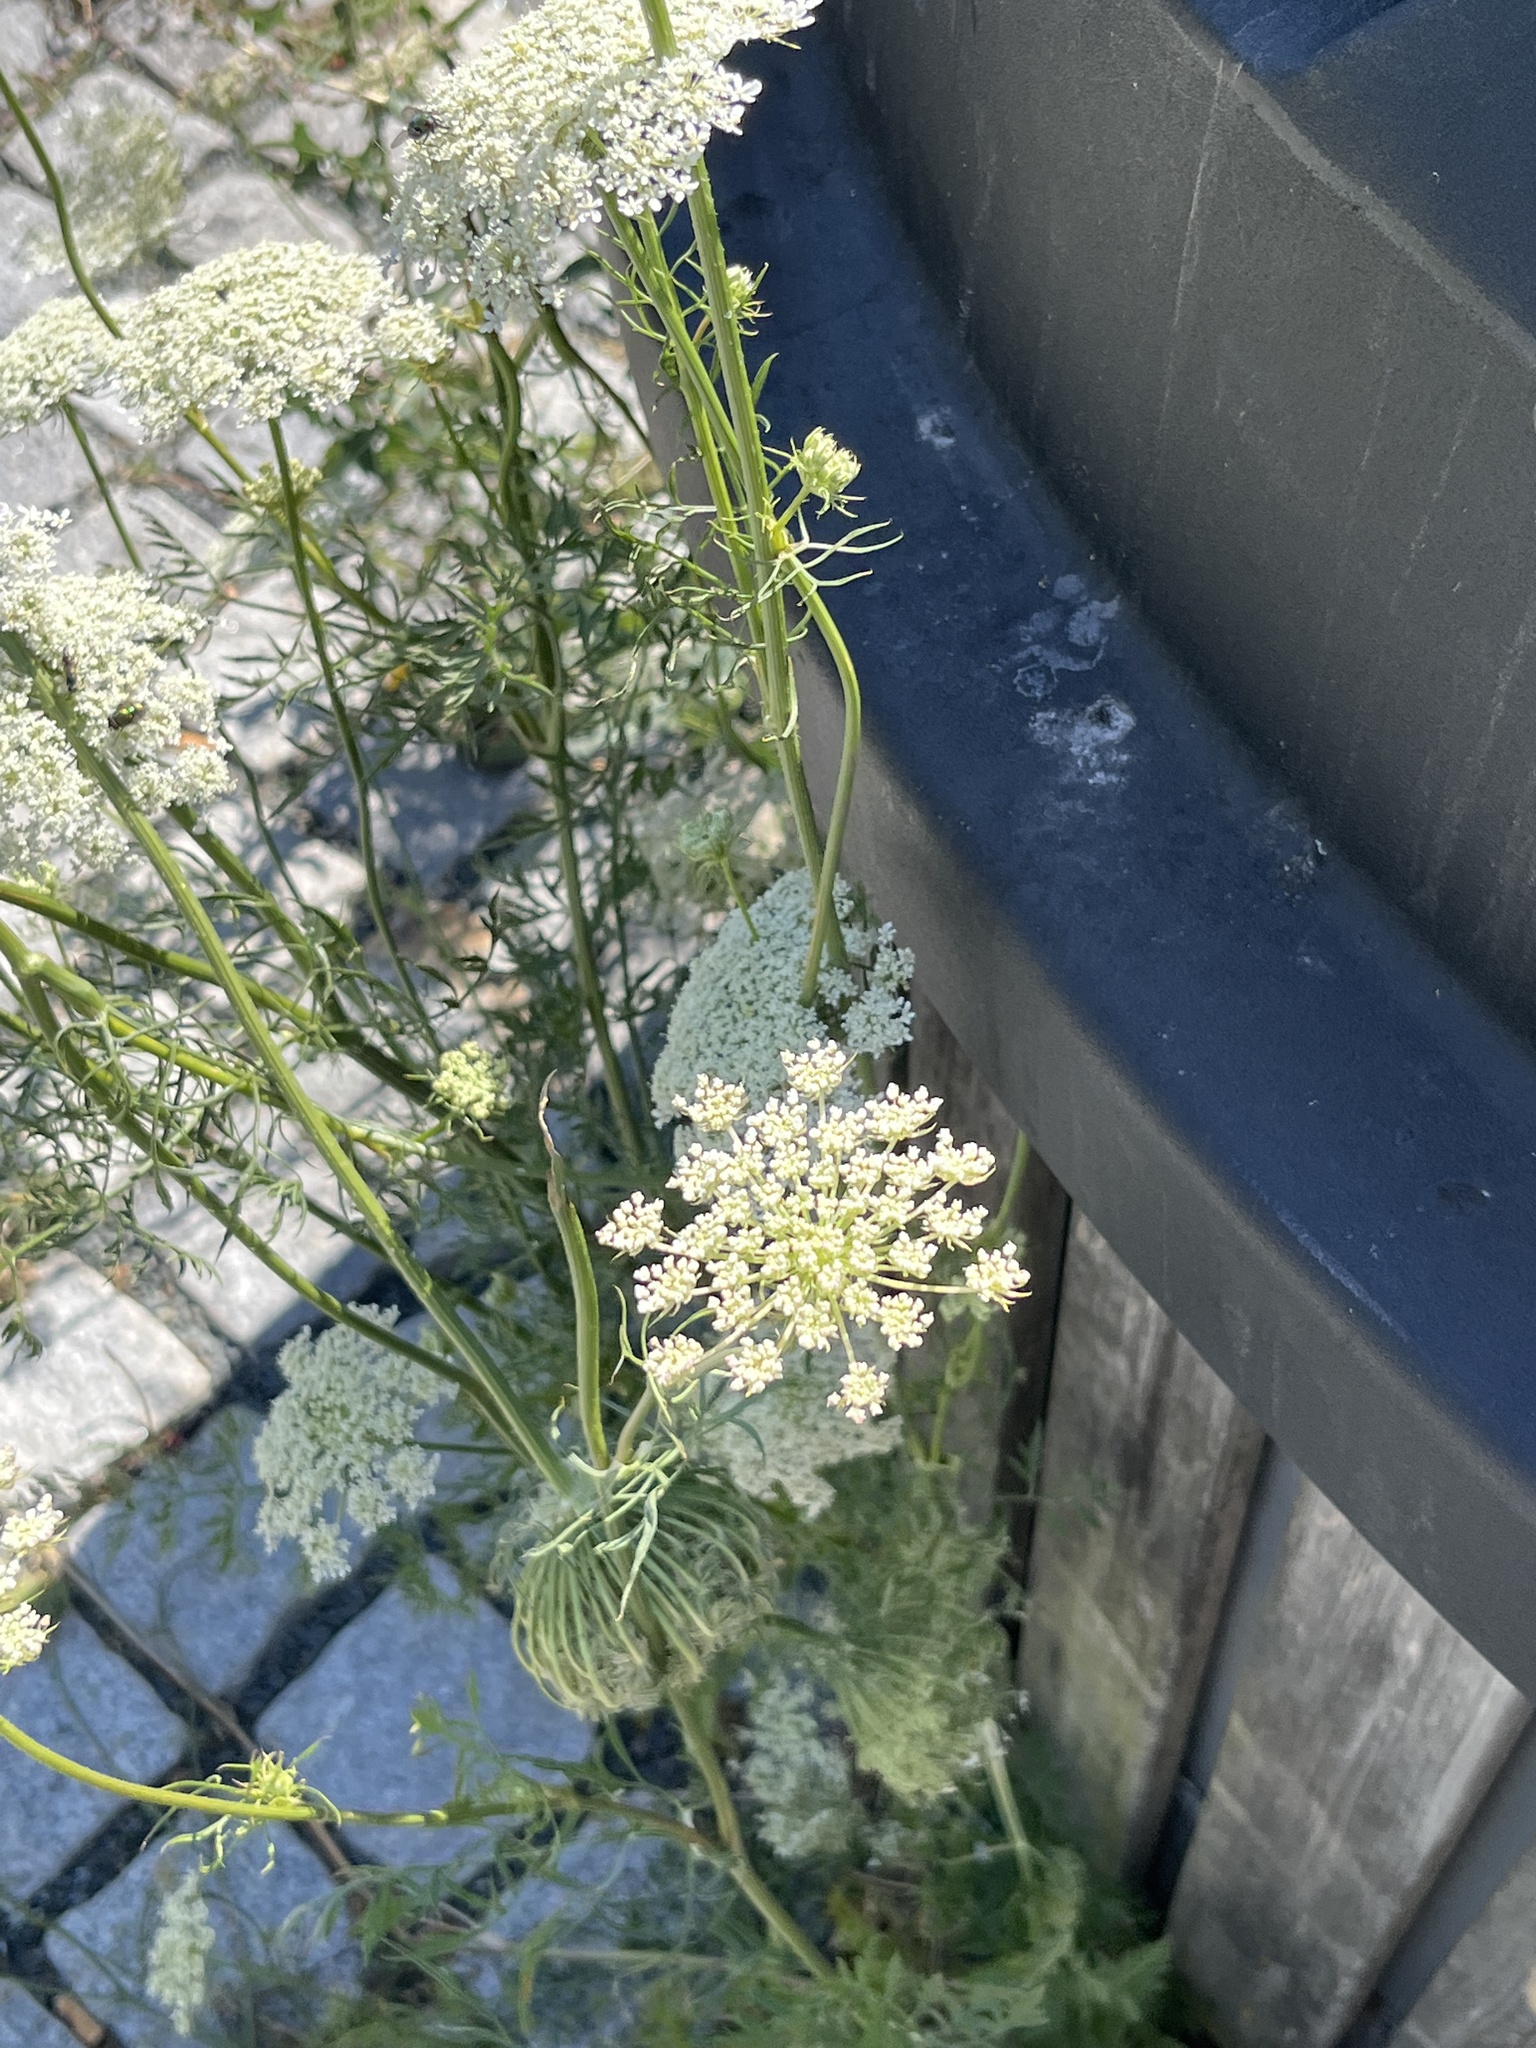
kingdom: Plantae
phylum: Tracheophyta
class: Magnoliopsida
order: Apiales
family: Apiaceae
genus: Daucus
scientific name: Daucus carota
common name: Wild carrot
